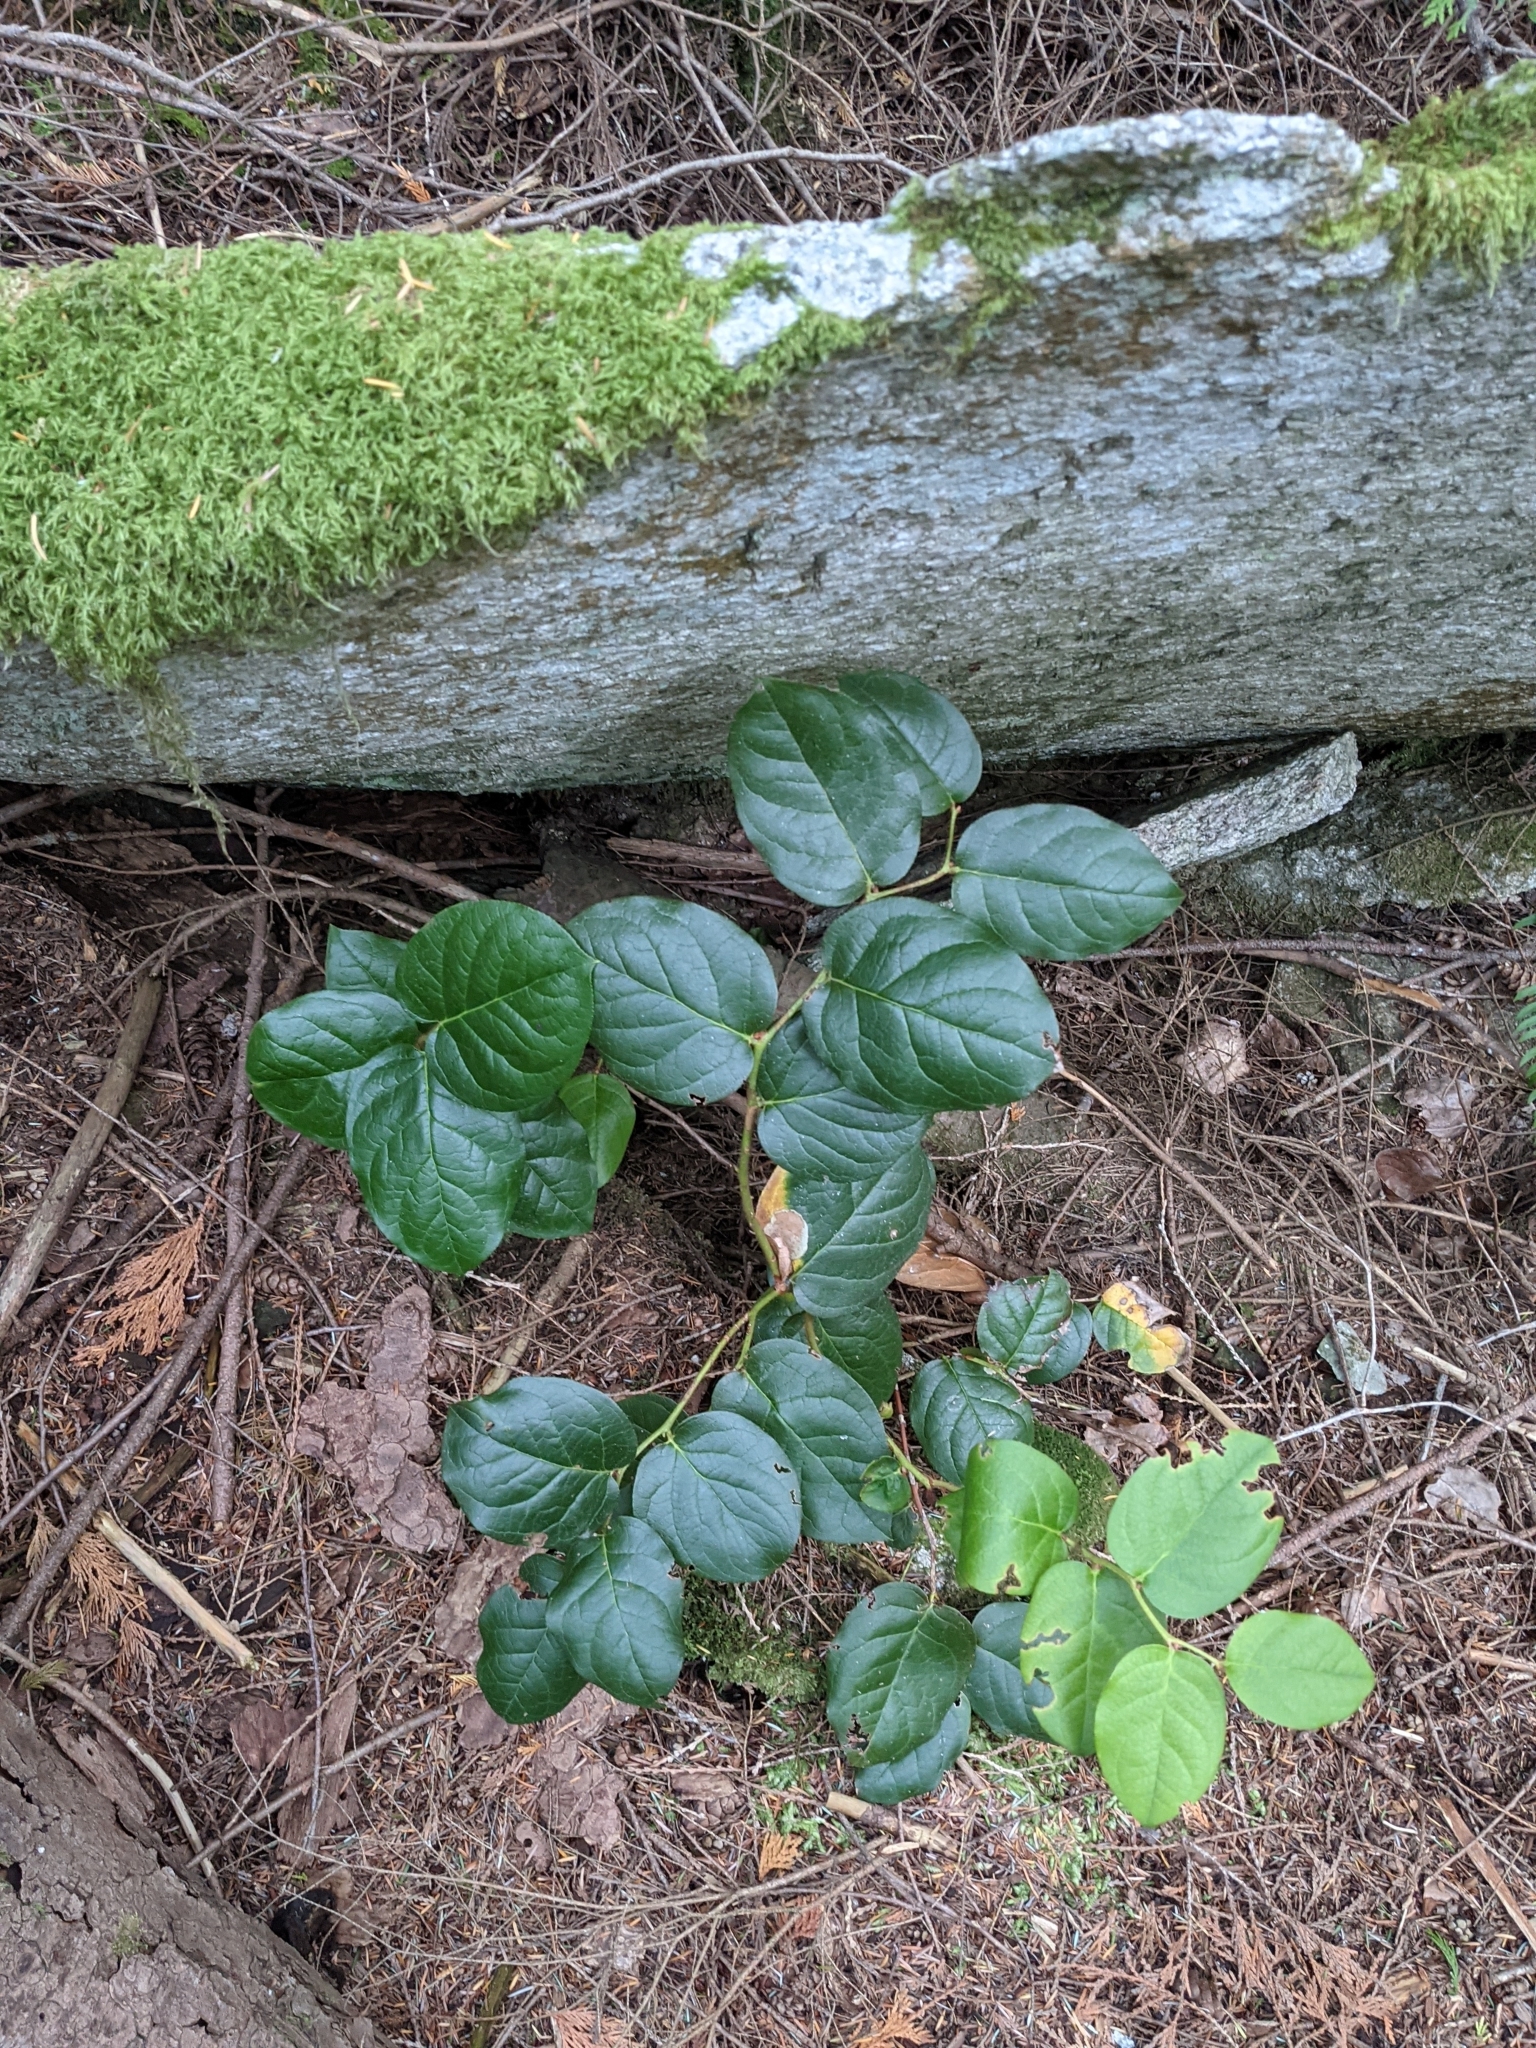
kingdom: Plantae
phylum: Tracheophyta
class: Magnoliopsida
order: Ericales
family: Ericaceae
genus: Gaultheria
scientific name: Gaultheria shallon
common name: Shallon
